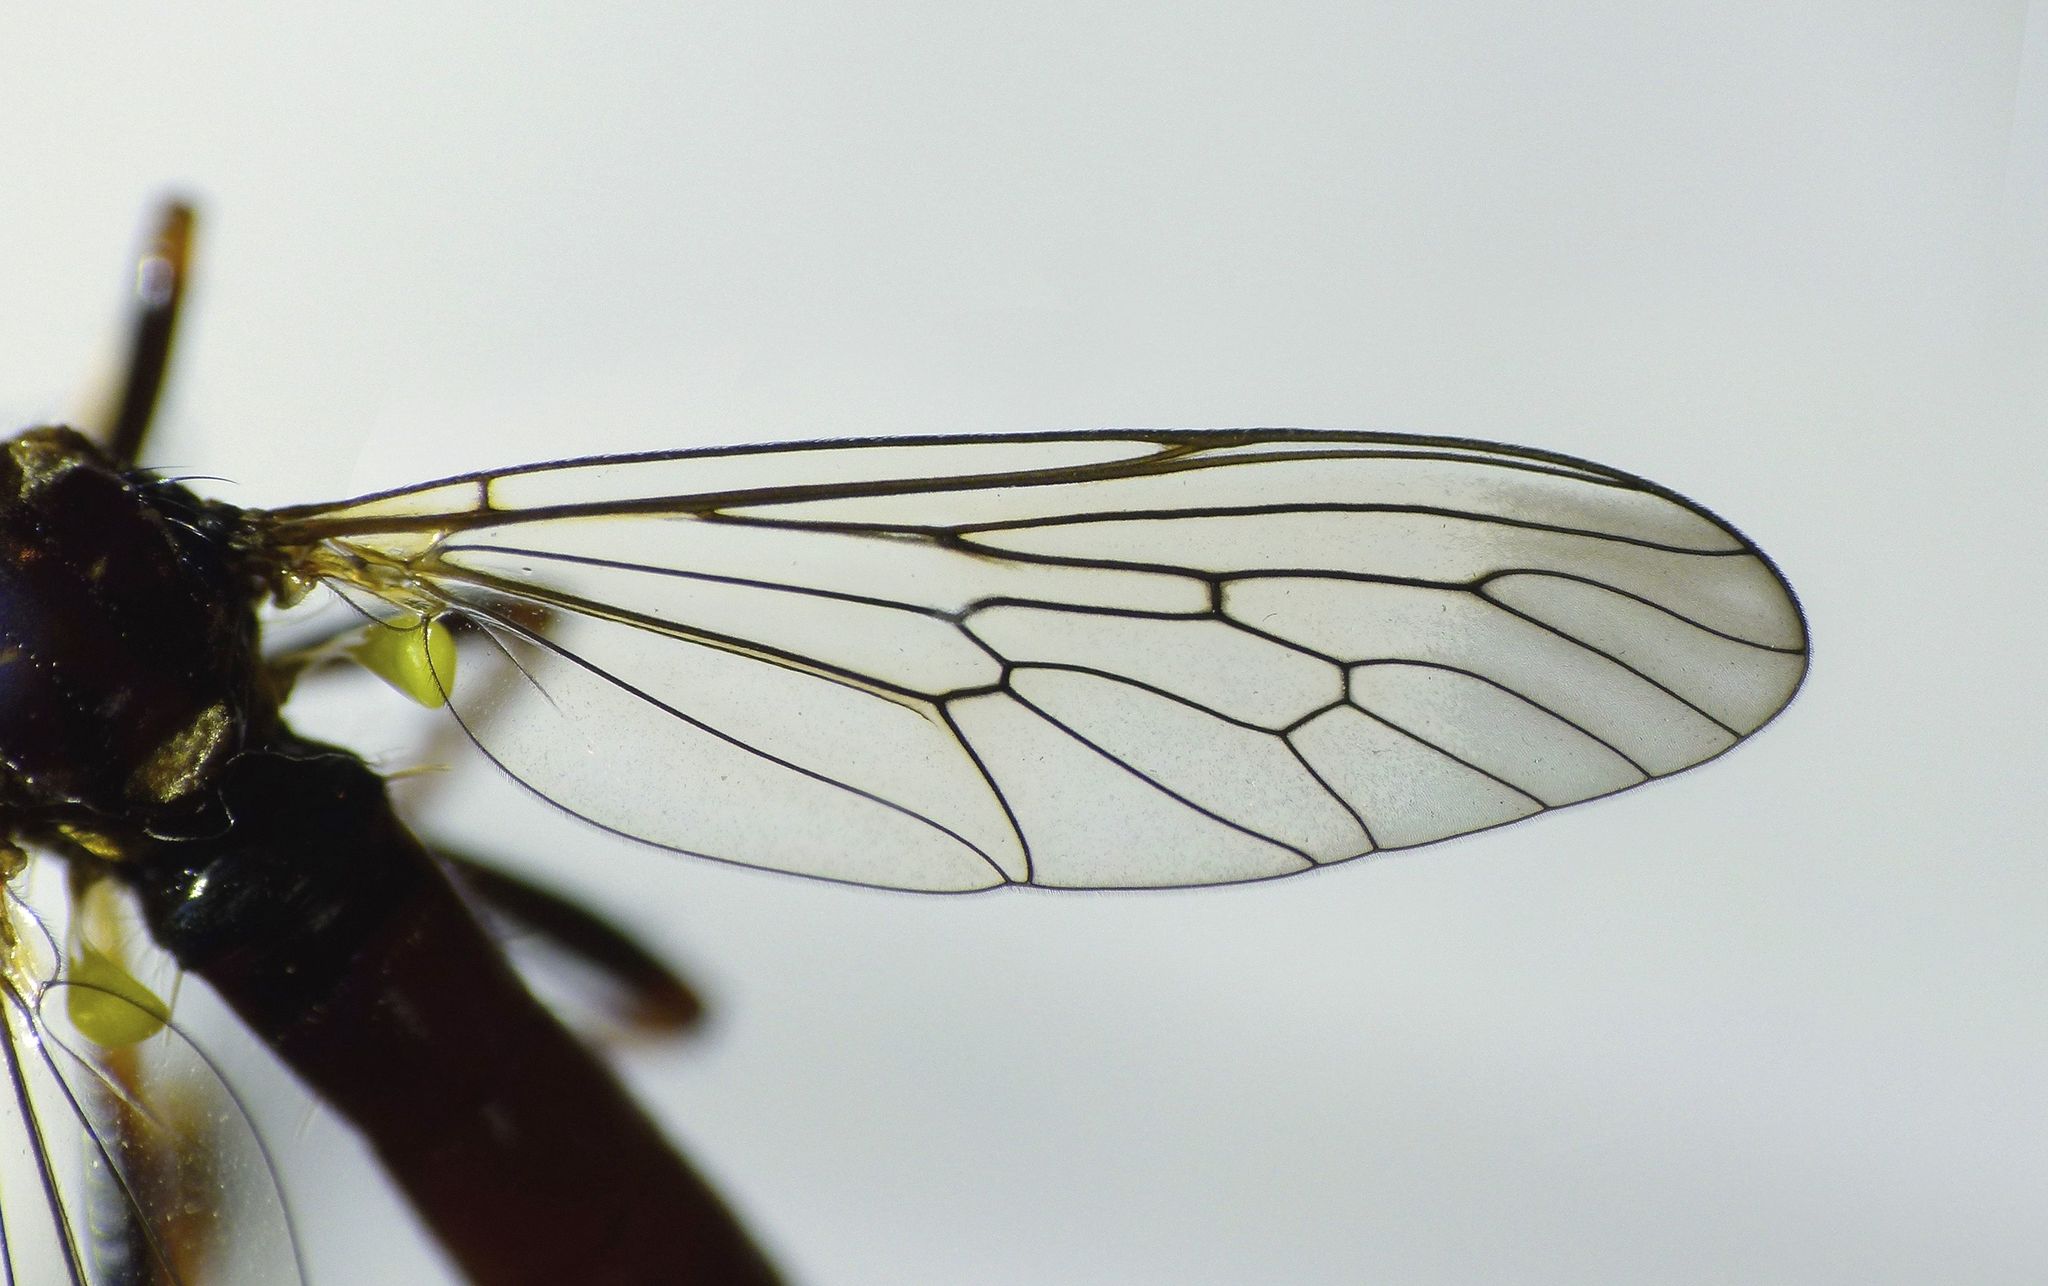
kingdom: Animalia
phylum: Arthropoda
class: Insecta
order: Diptera
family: Asilidae
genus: Saropogon
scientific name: Saropogon antipodus
